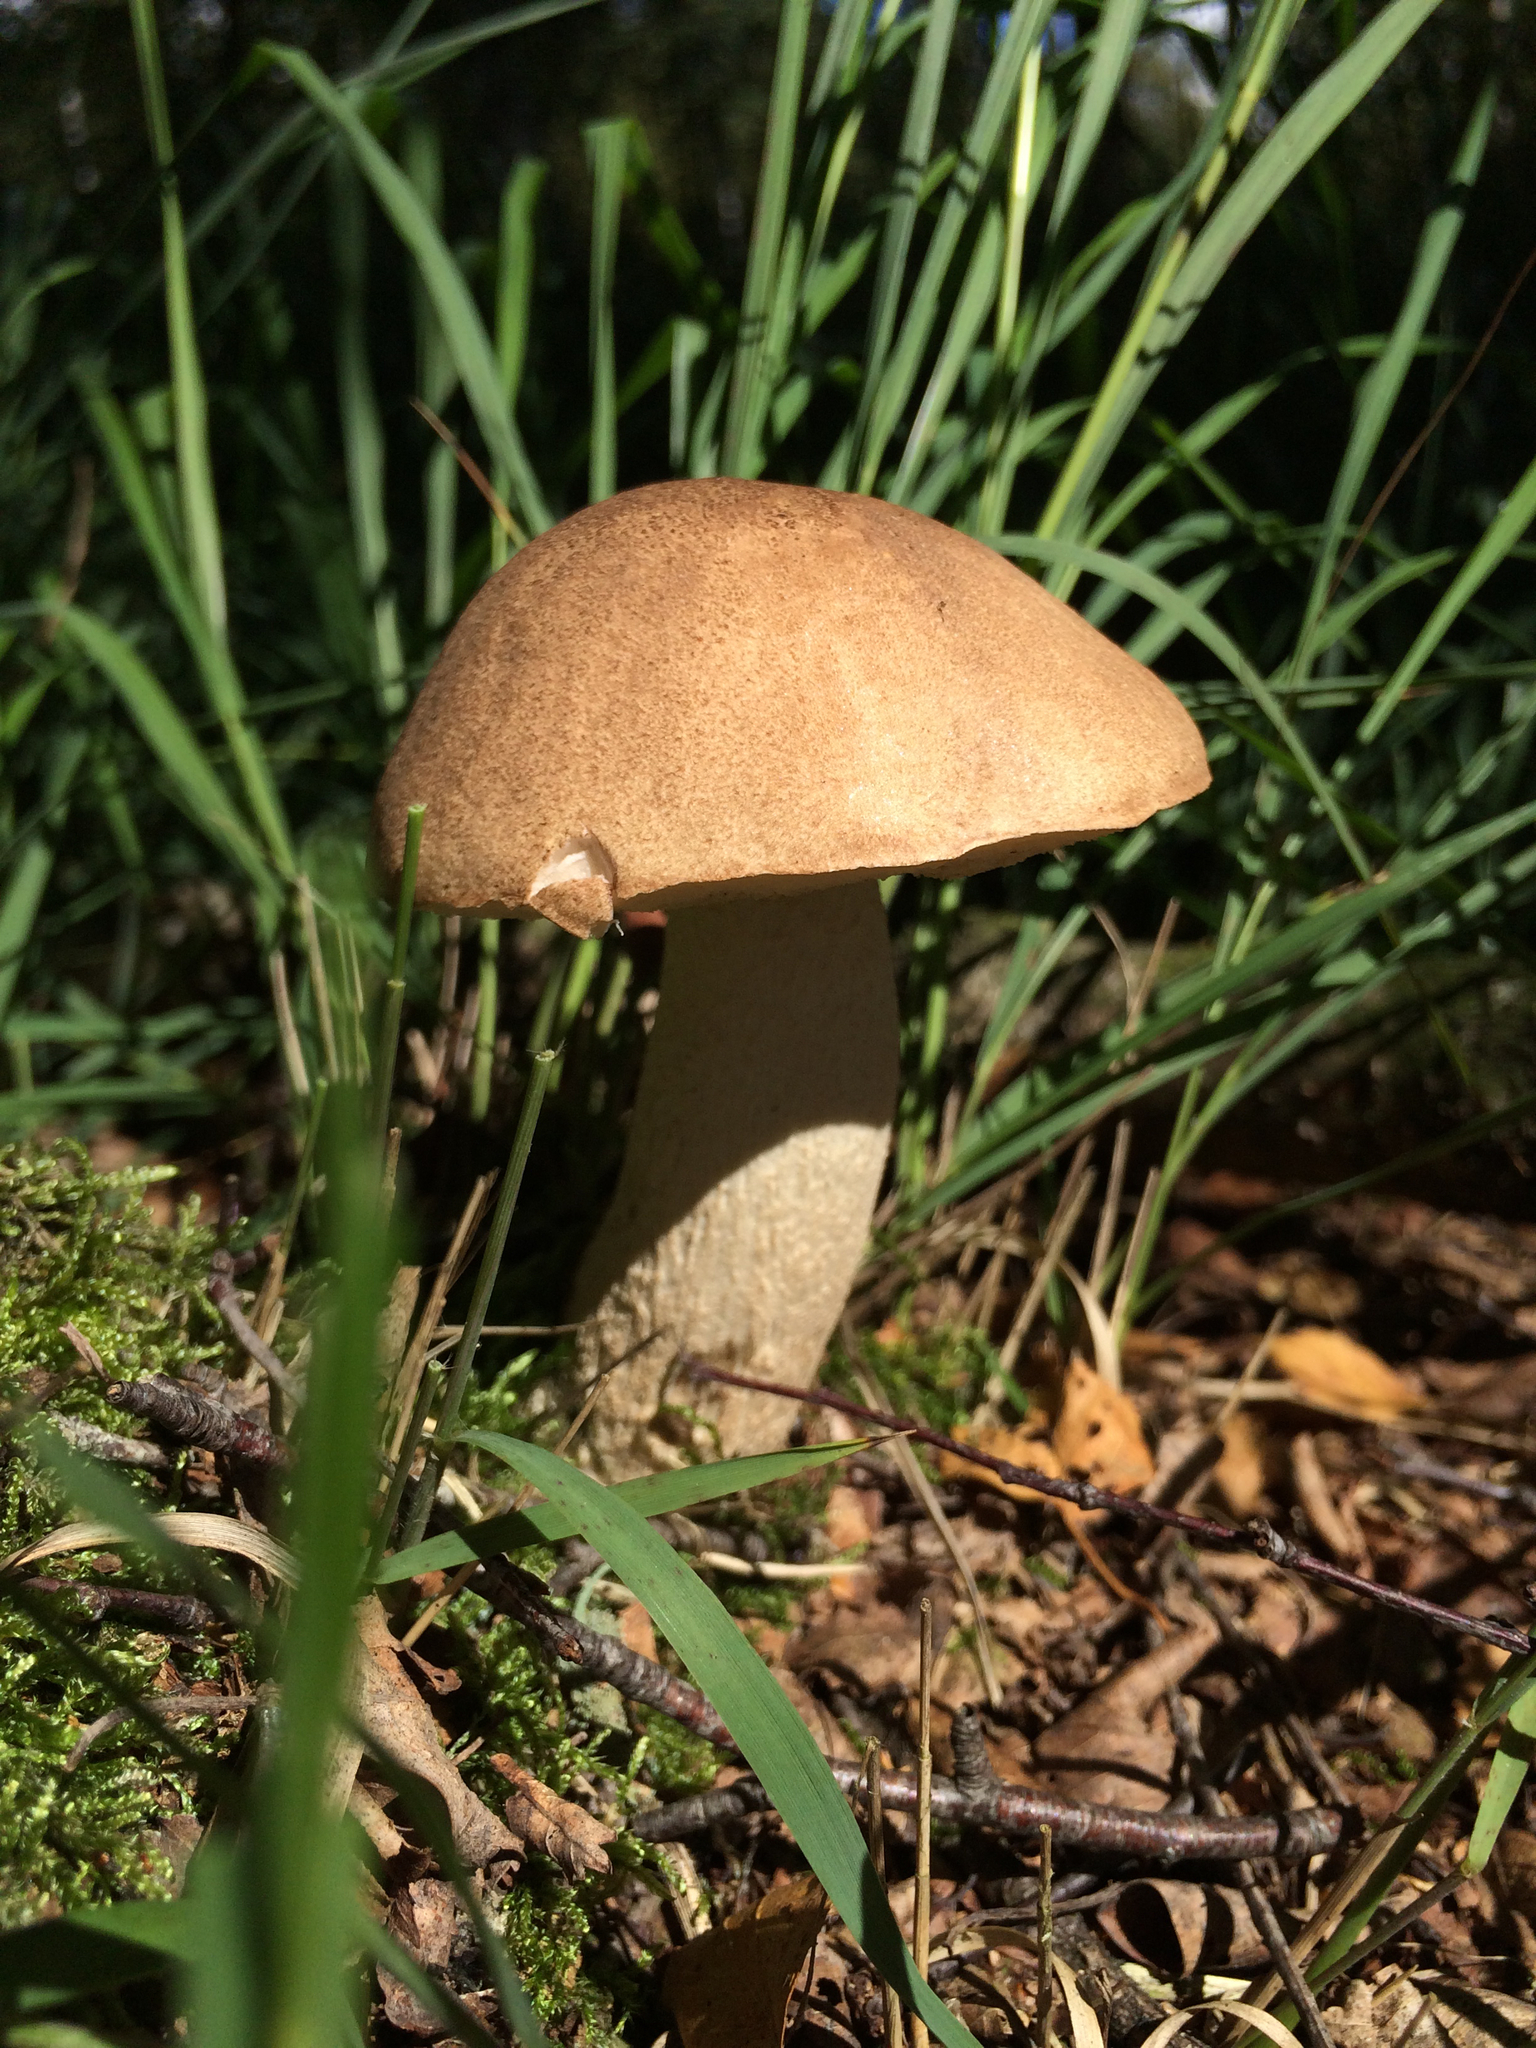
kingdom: Fungi
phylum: Basidiomycota
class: Agaricomycetes
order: Boletales
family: Boletaceae
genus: Leccinum
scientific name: Leccinum scabrum
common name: Blushing bolete
